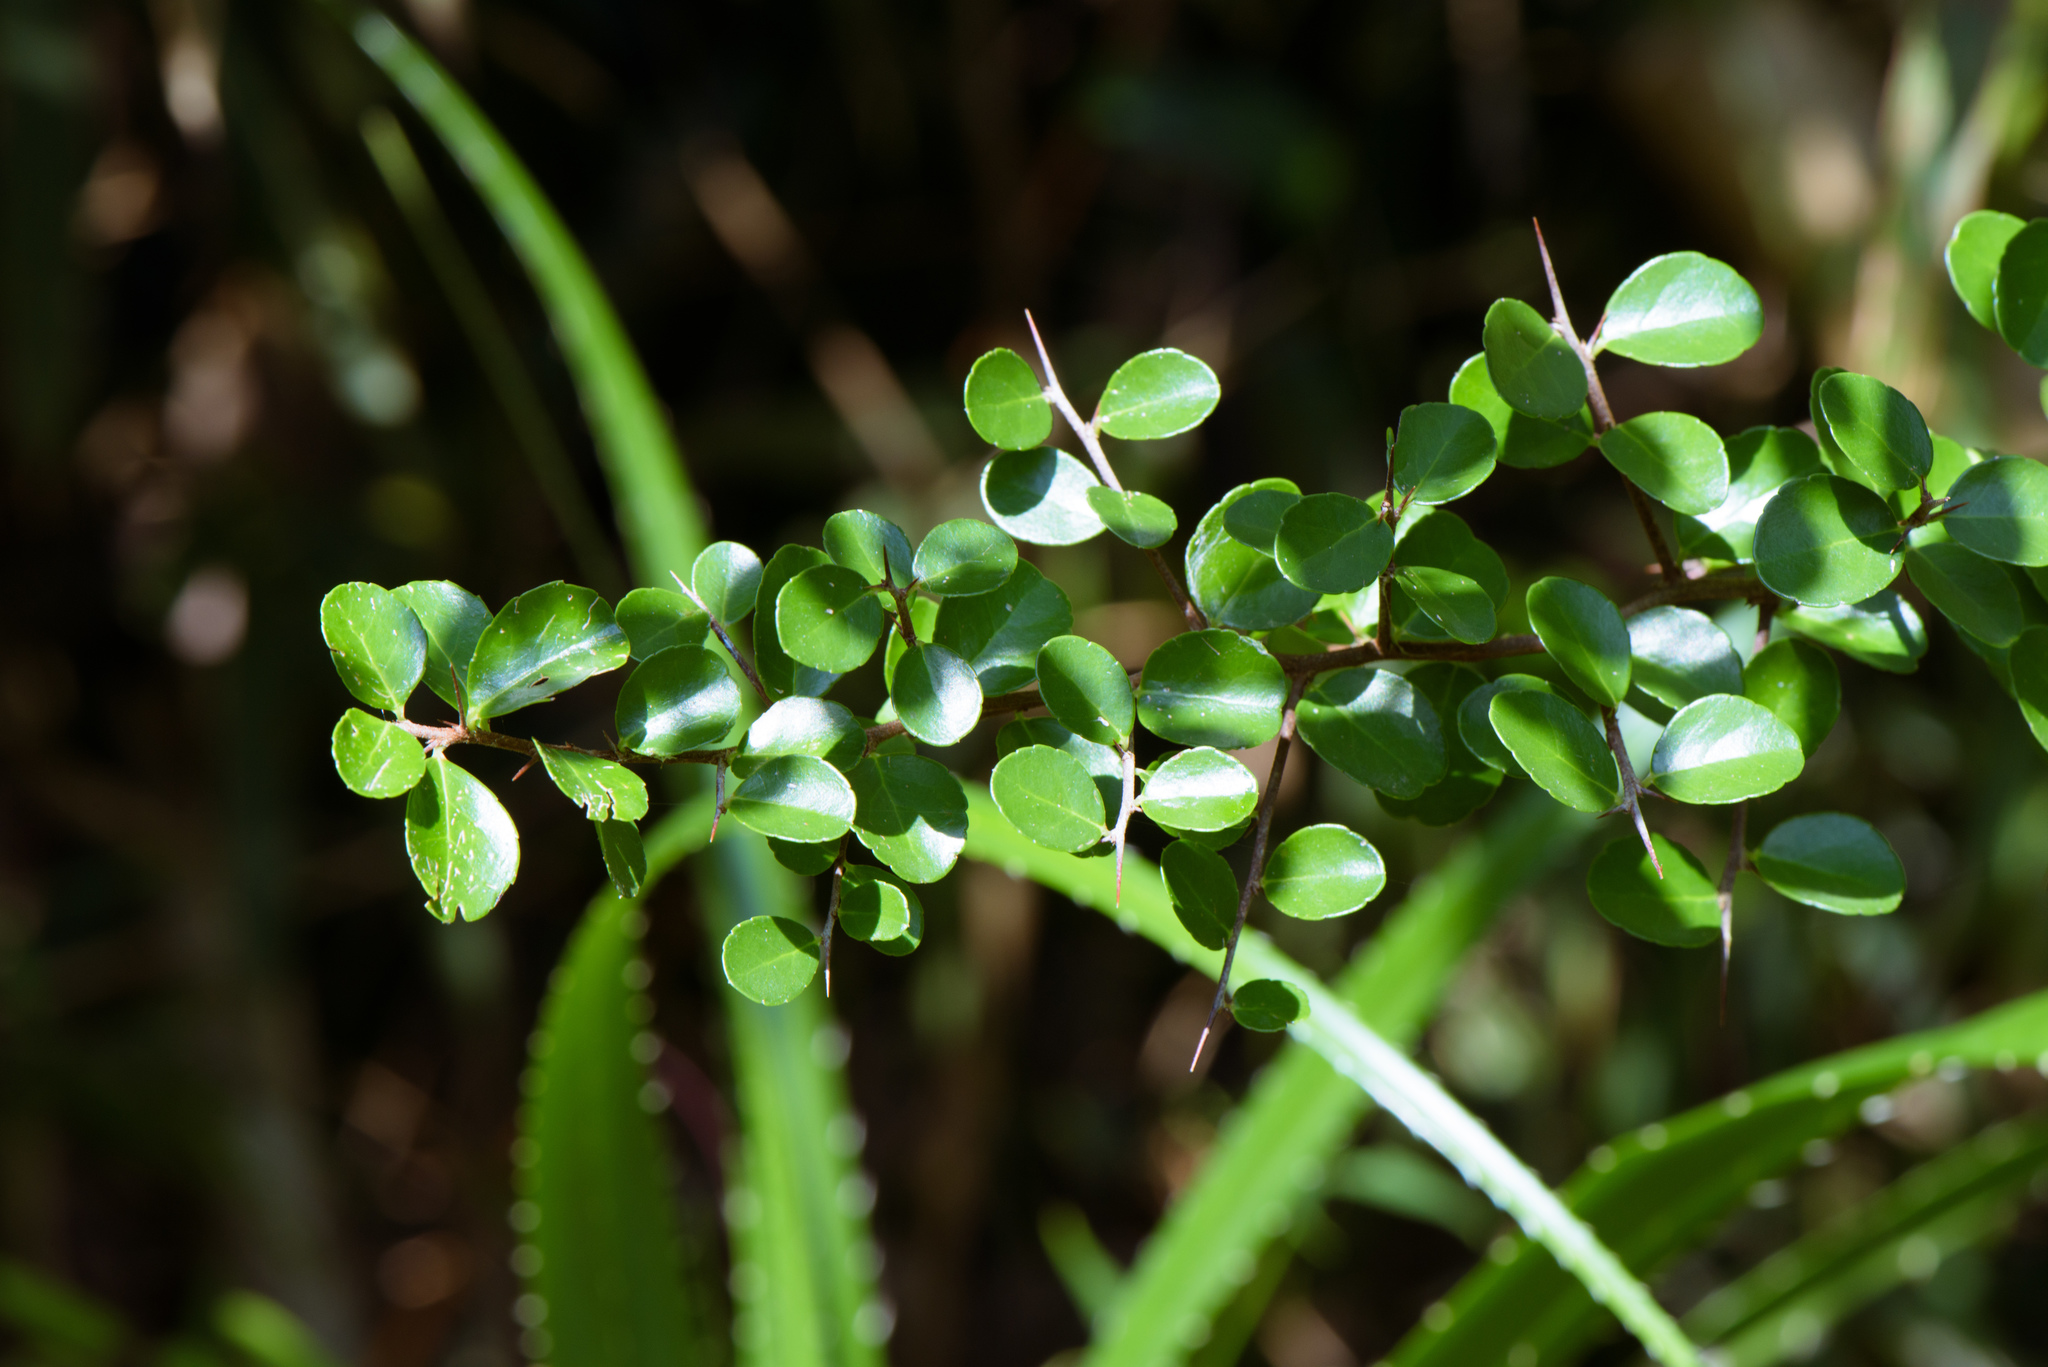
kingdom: Plantae
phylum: Tracheophyta
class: Magnoliopsida
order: Celastrales
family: Celastraceae
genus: Gymnosporia
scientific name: Gymnosporia diversifolia
